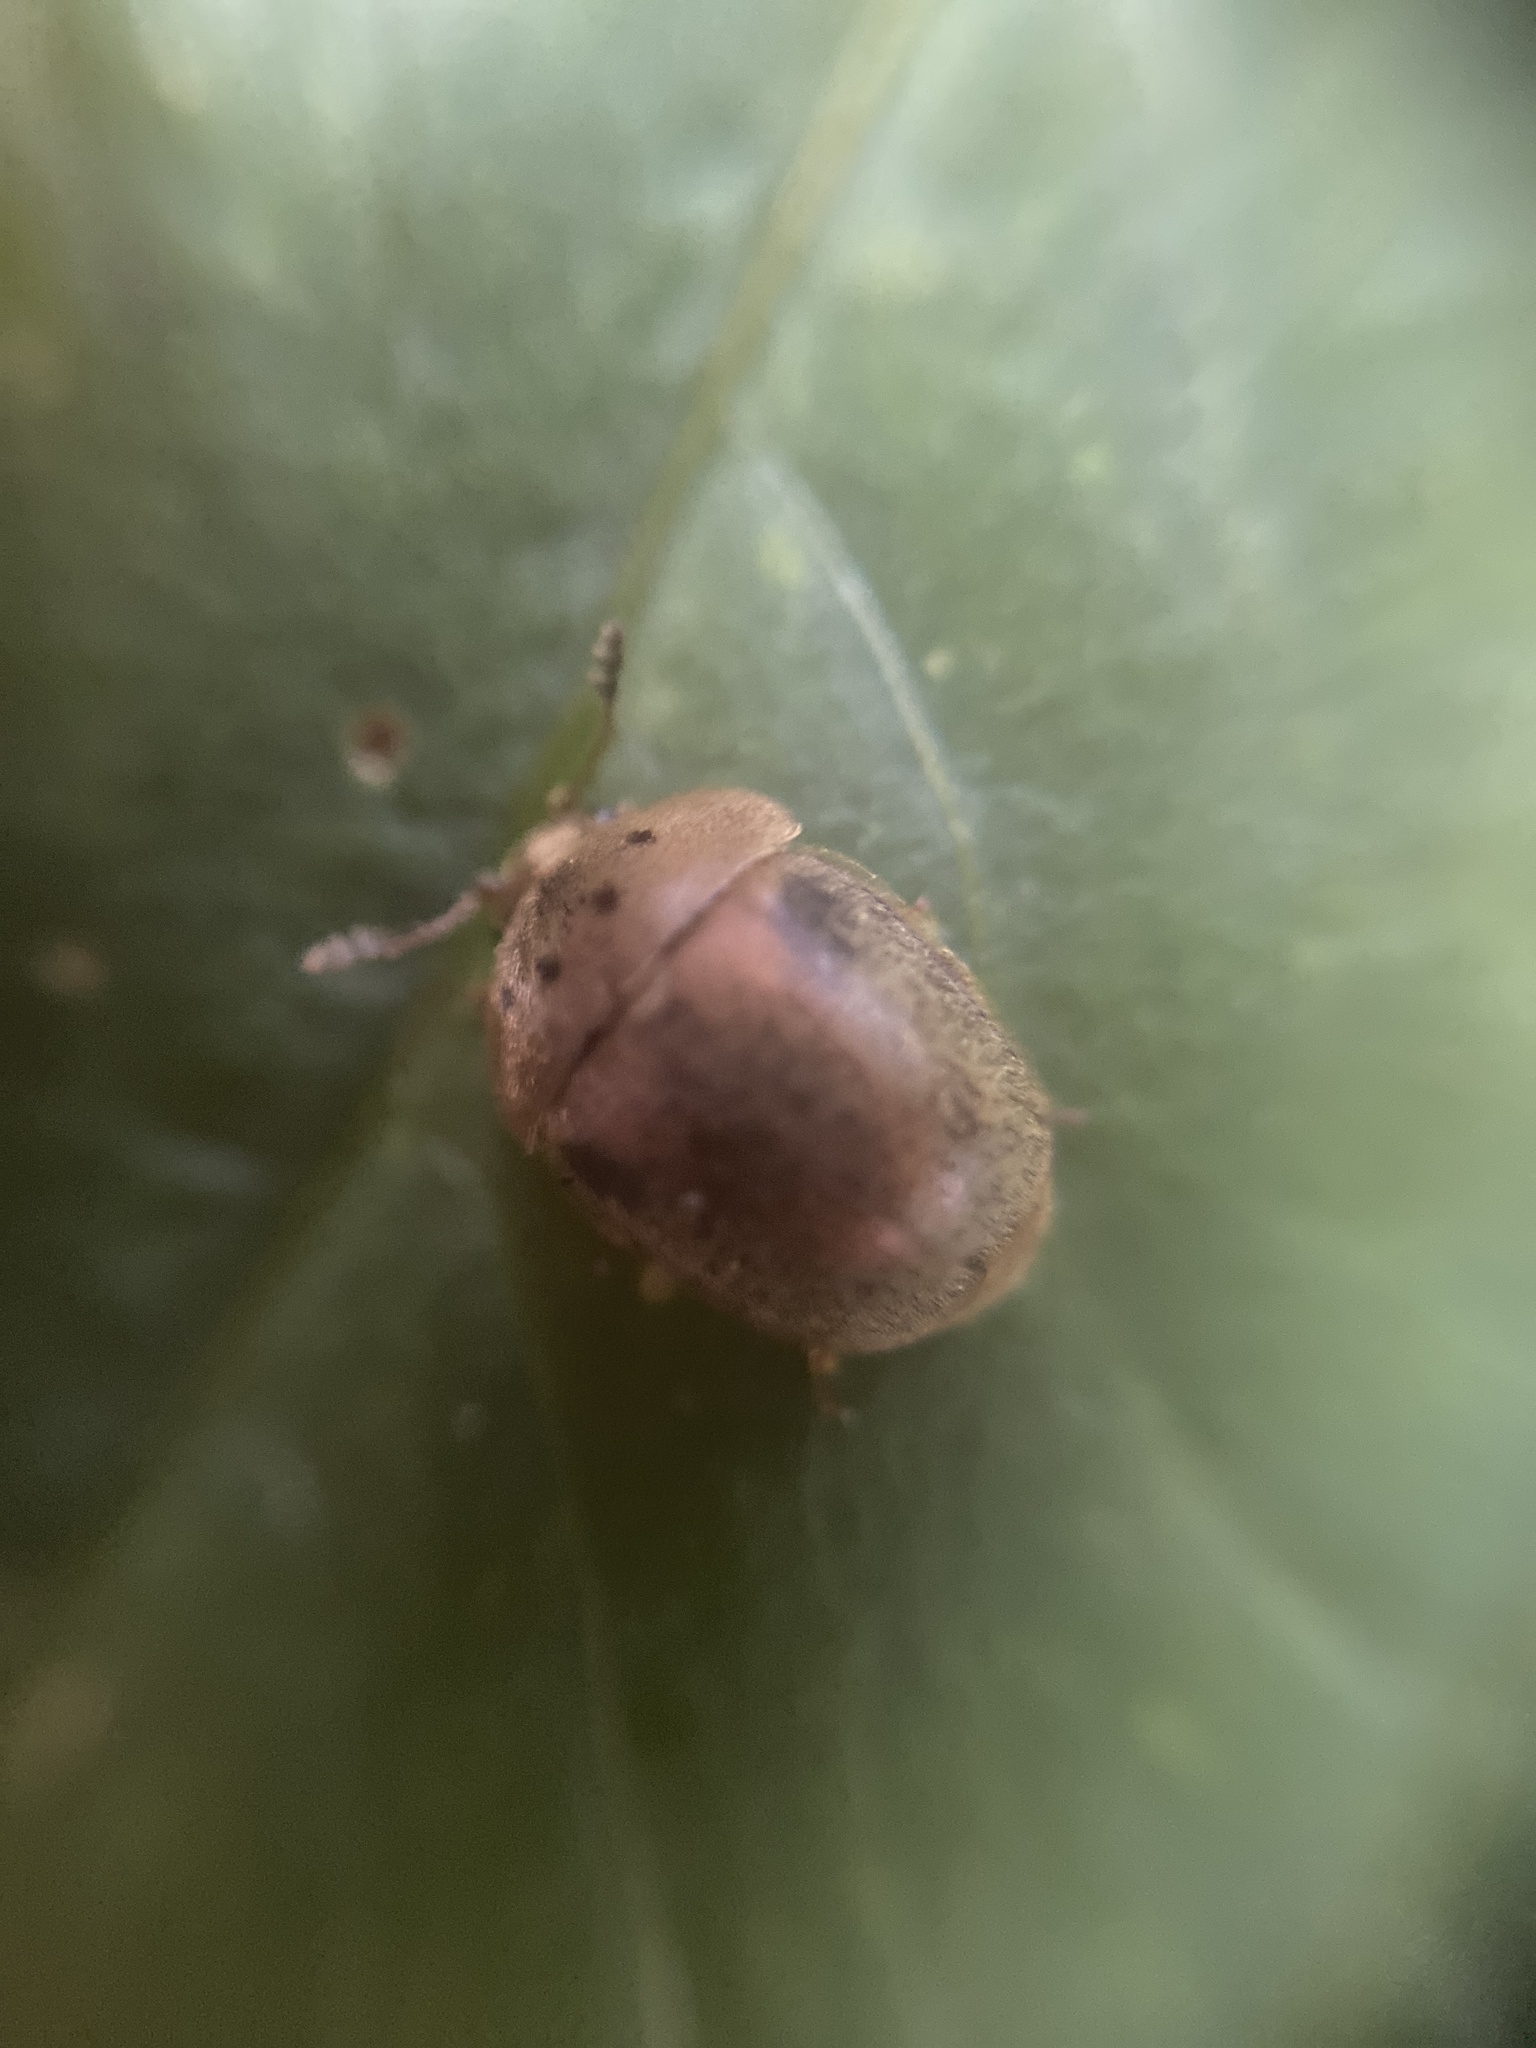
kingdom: Animalia
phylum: Arthropoda
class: Insecta
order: Coleoptera
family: Nitidulidae
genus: Cychramus
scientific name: Cychramus variegatus
